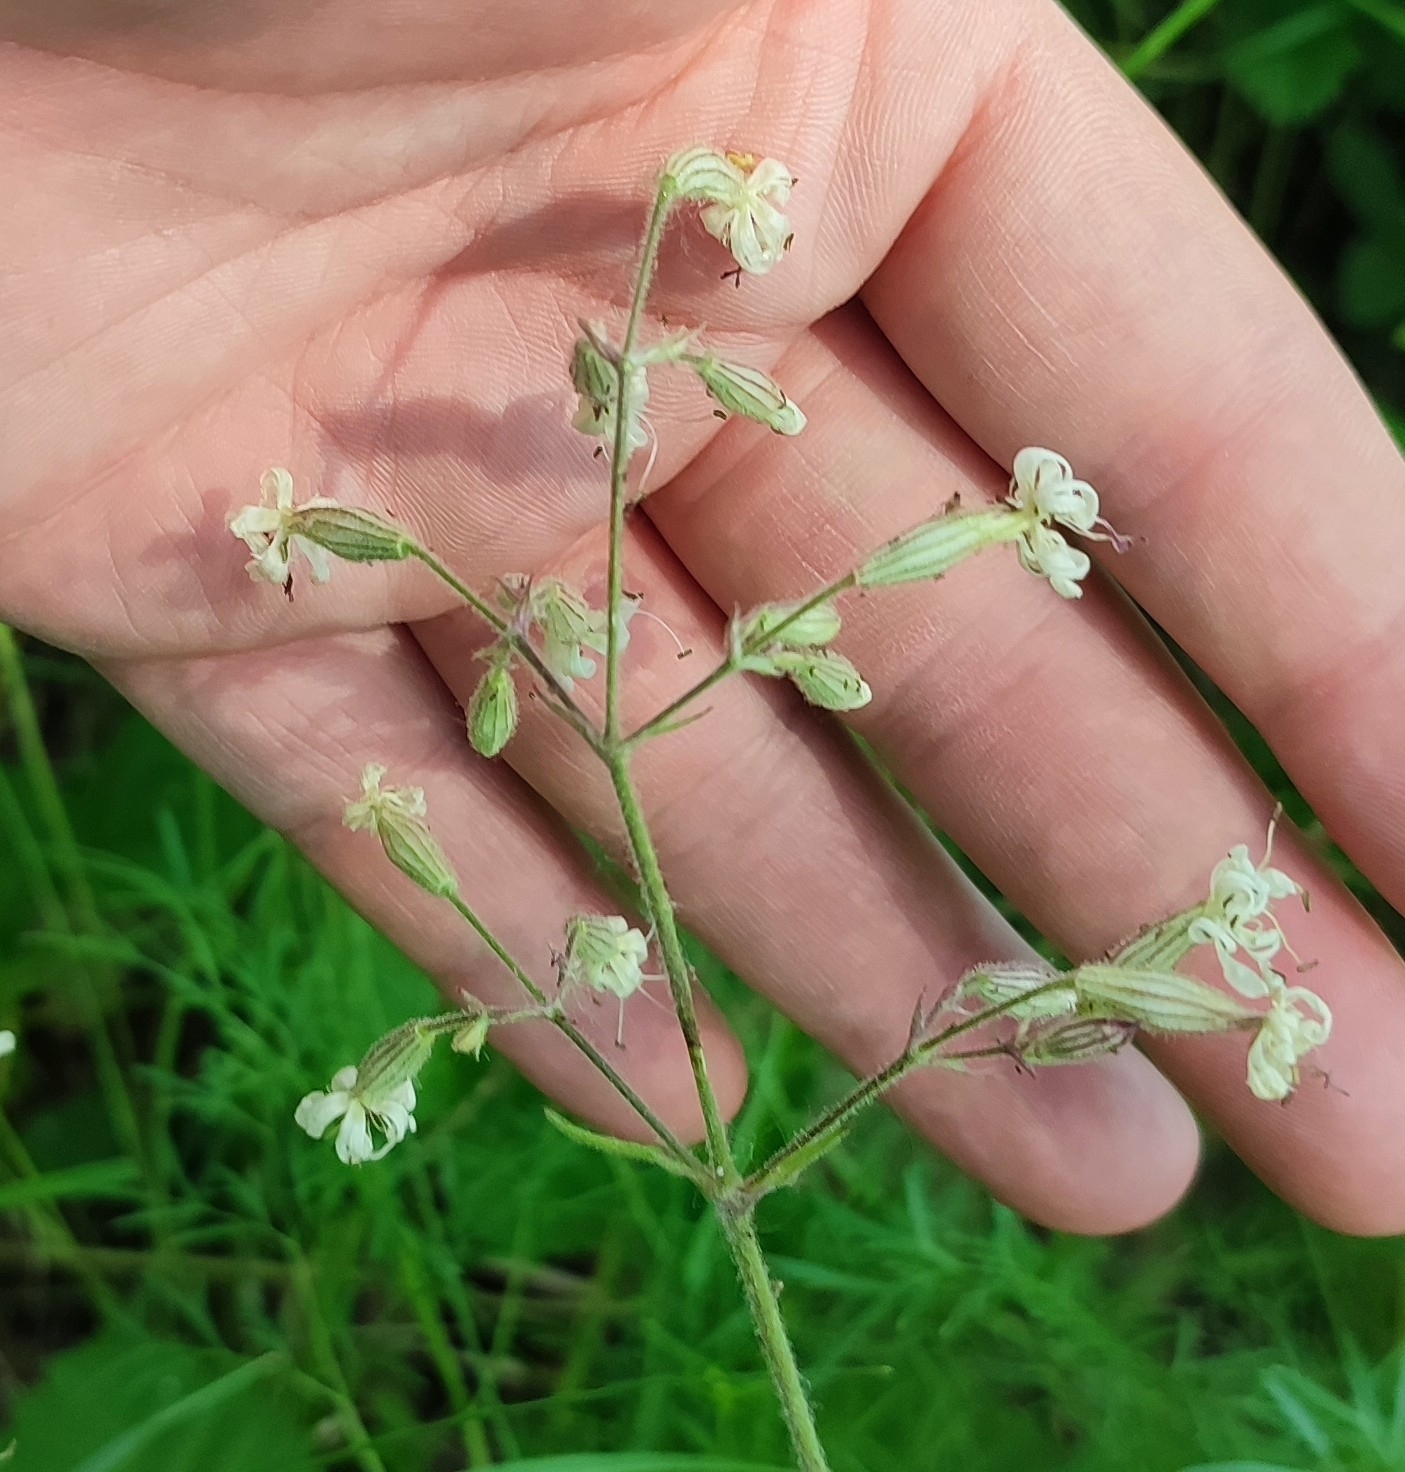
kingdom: Plantae
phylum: Tracheophyta
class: Magnoliopsida
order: Caryophyllales
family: Caryophyllaceae
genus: Silene
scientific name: Silene nutans
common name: Nottingham catchfly
